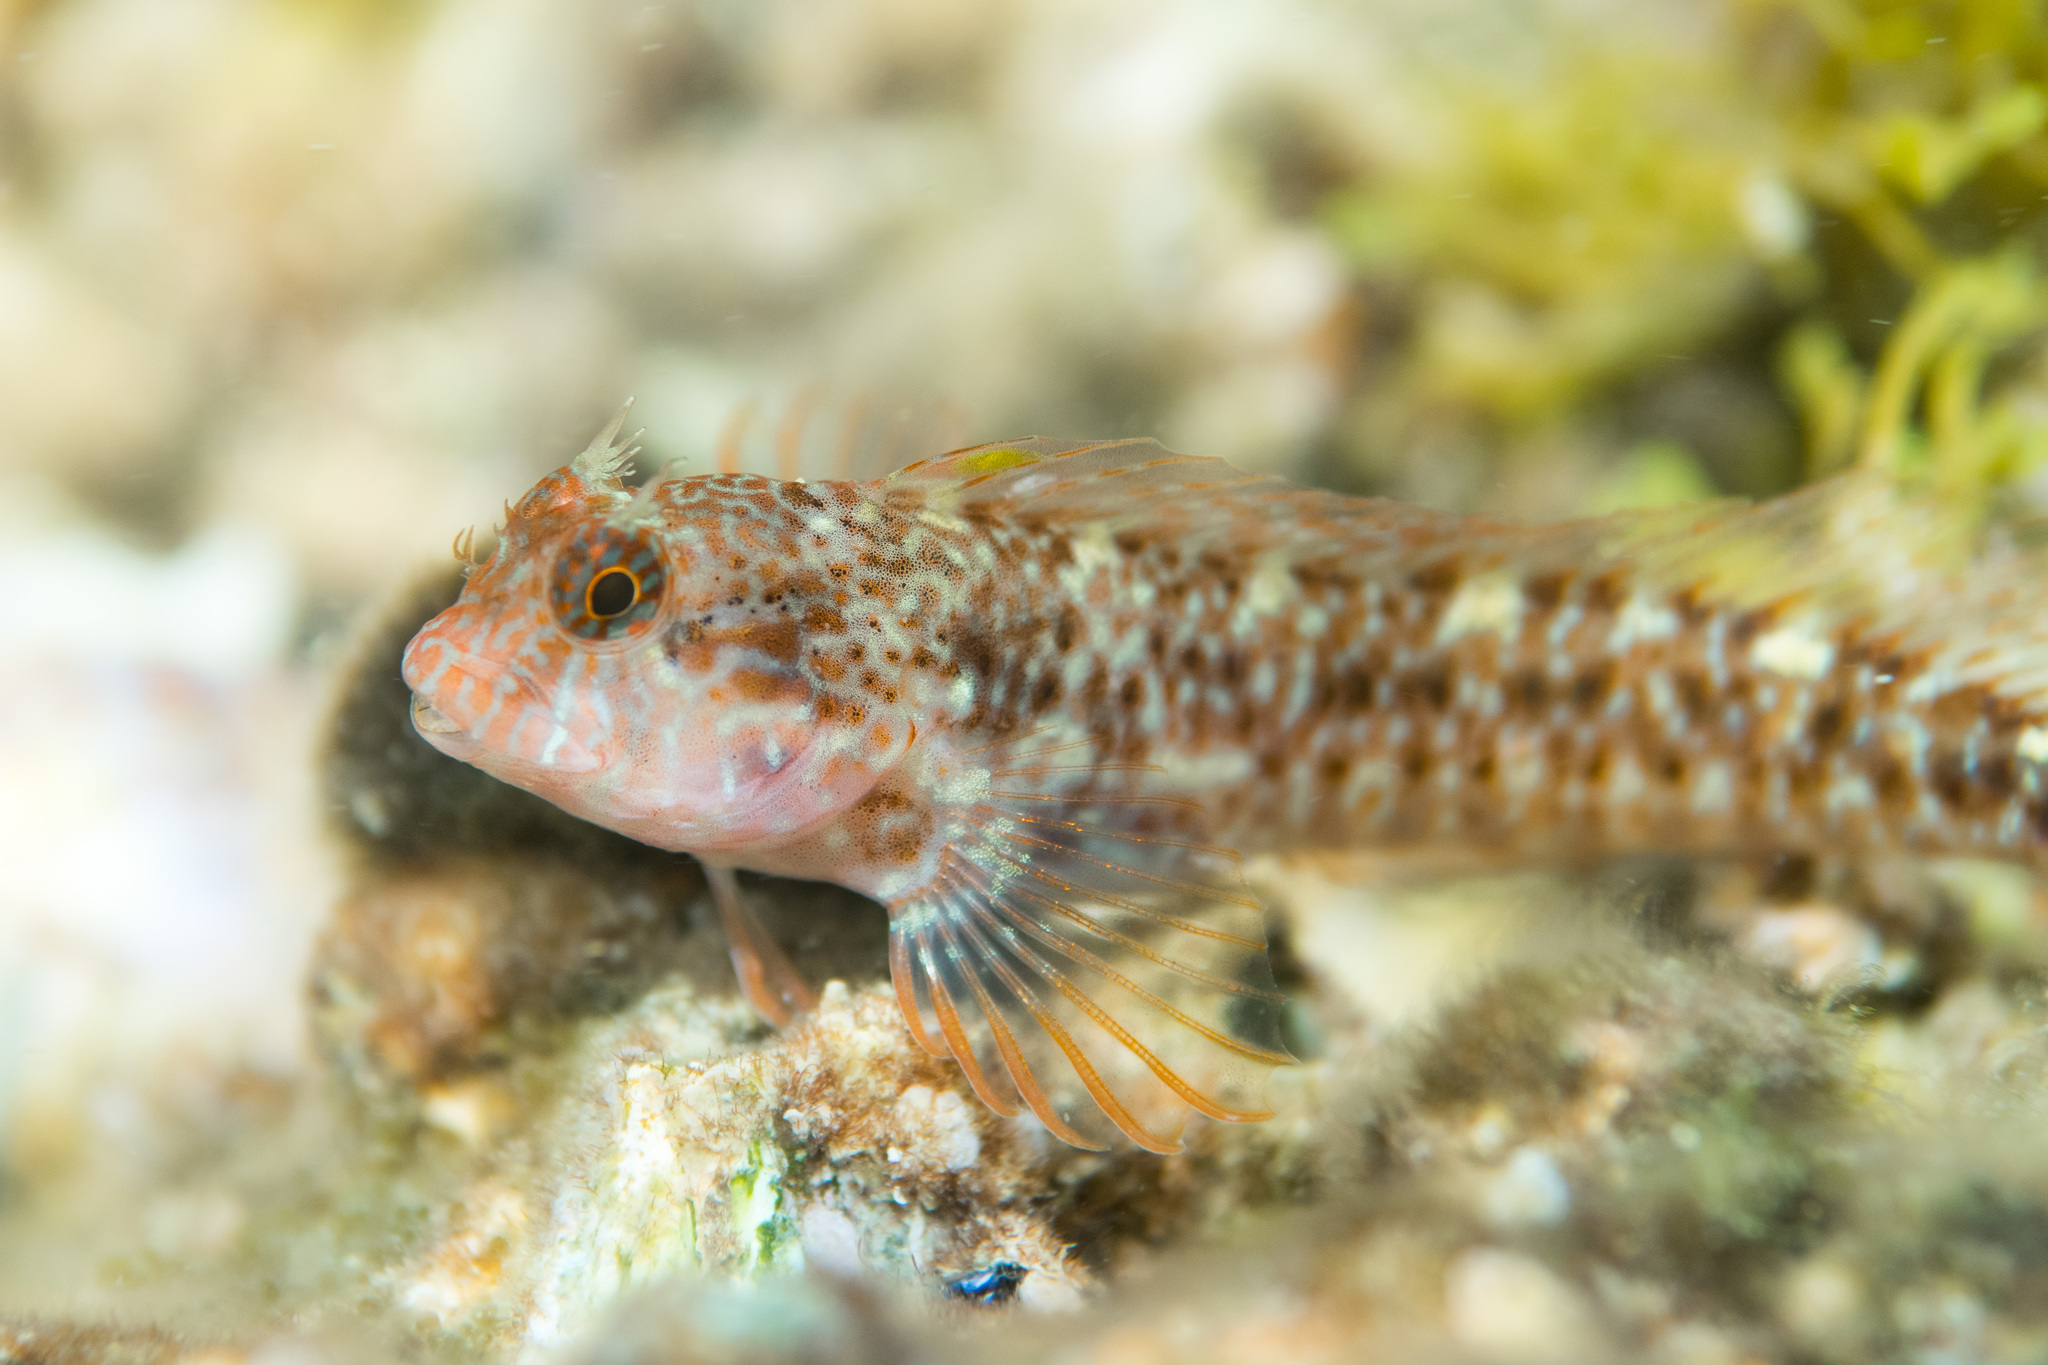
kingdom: Animalia
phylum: Chordata
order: Perciformes
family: Blenniidae
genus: Parablennius
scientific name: Parablennius zvonimiri
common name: Red blenny
